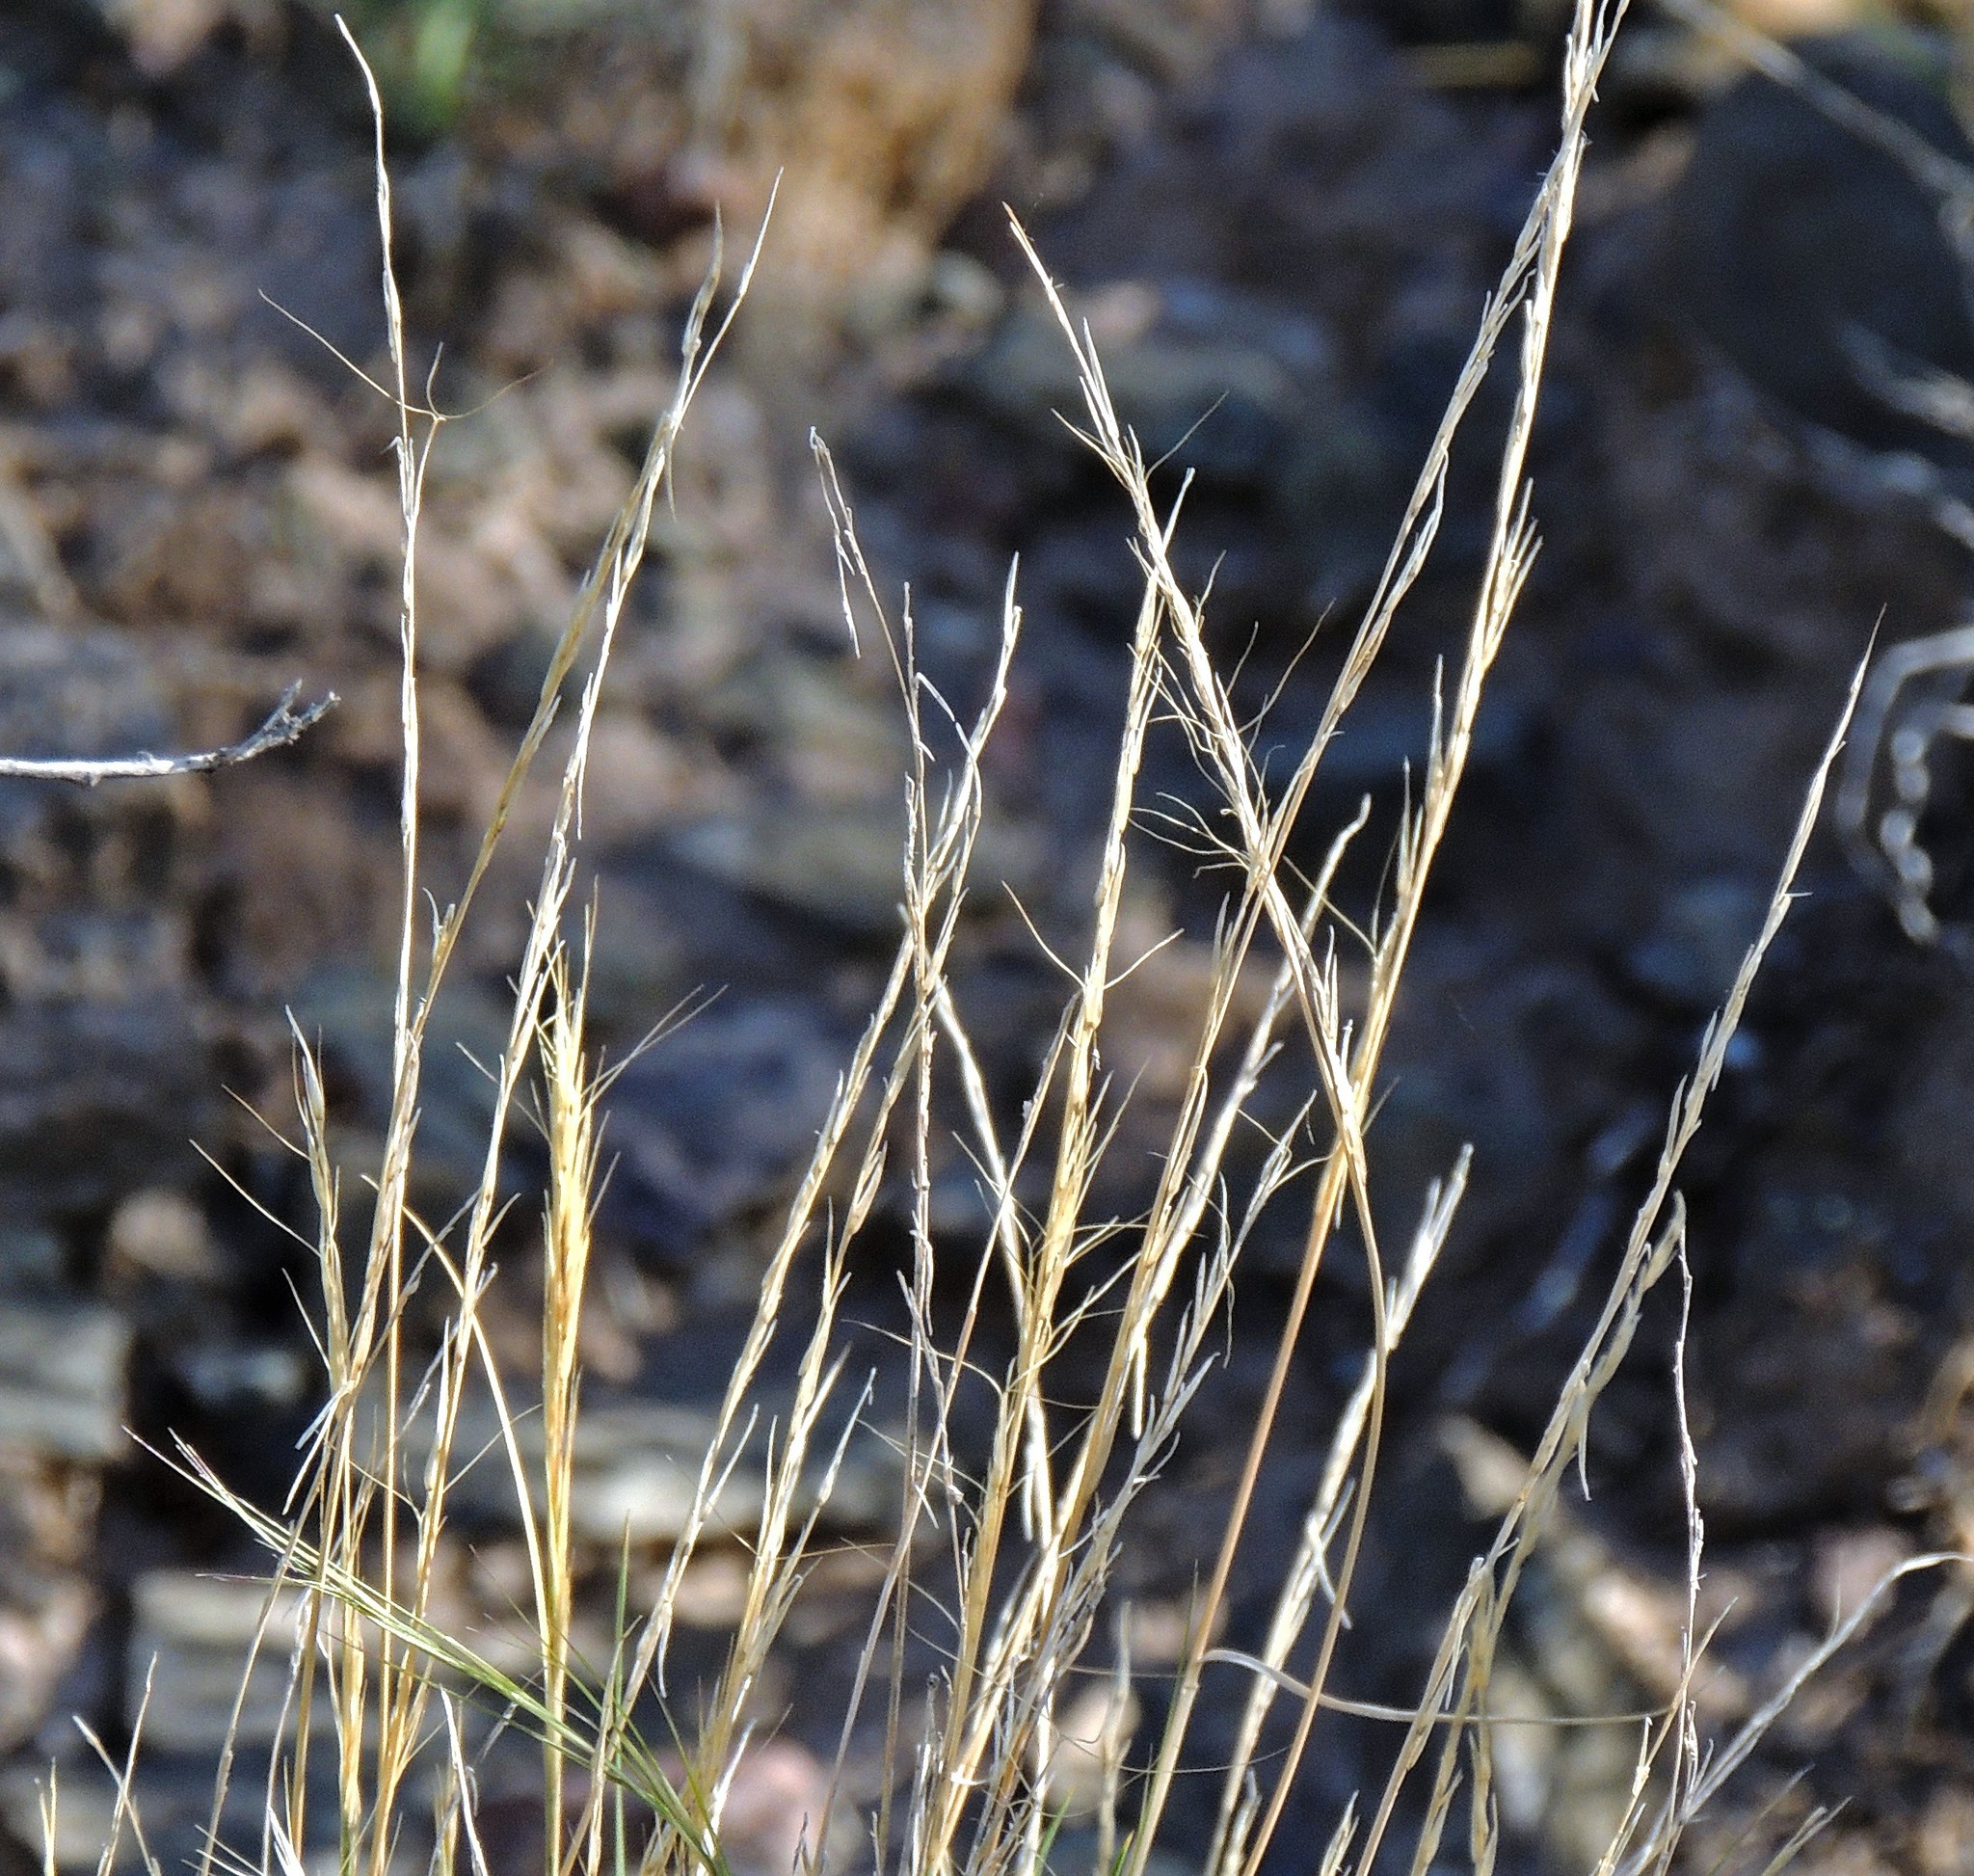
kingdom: Plantae
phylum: Tracheophyta
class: Liliopsida
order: Poales
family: Poaceae
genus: Aristida
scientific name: Aristida mendocina
